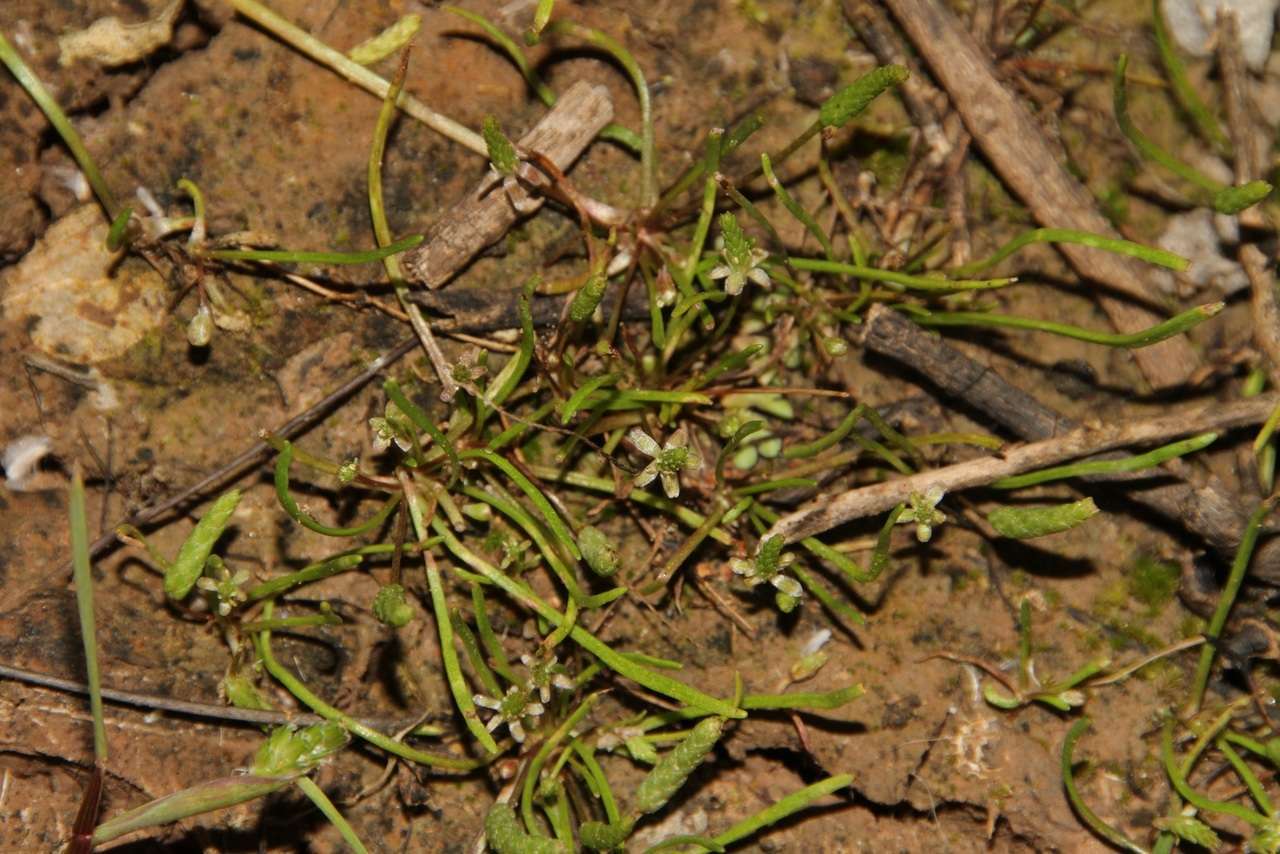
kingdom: Plantae
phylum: Tracheophyta
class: Magnoliopsida
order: Ranunculales
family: Ranunculaceae
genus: Myosurus
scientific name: Myosurus australis
